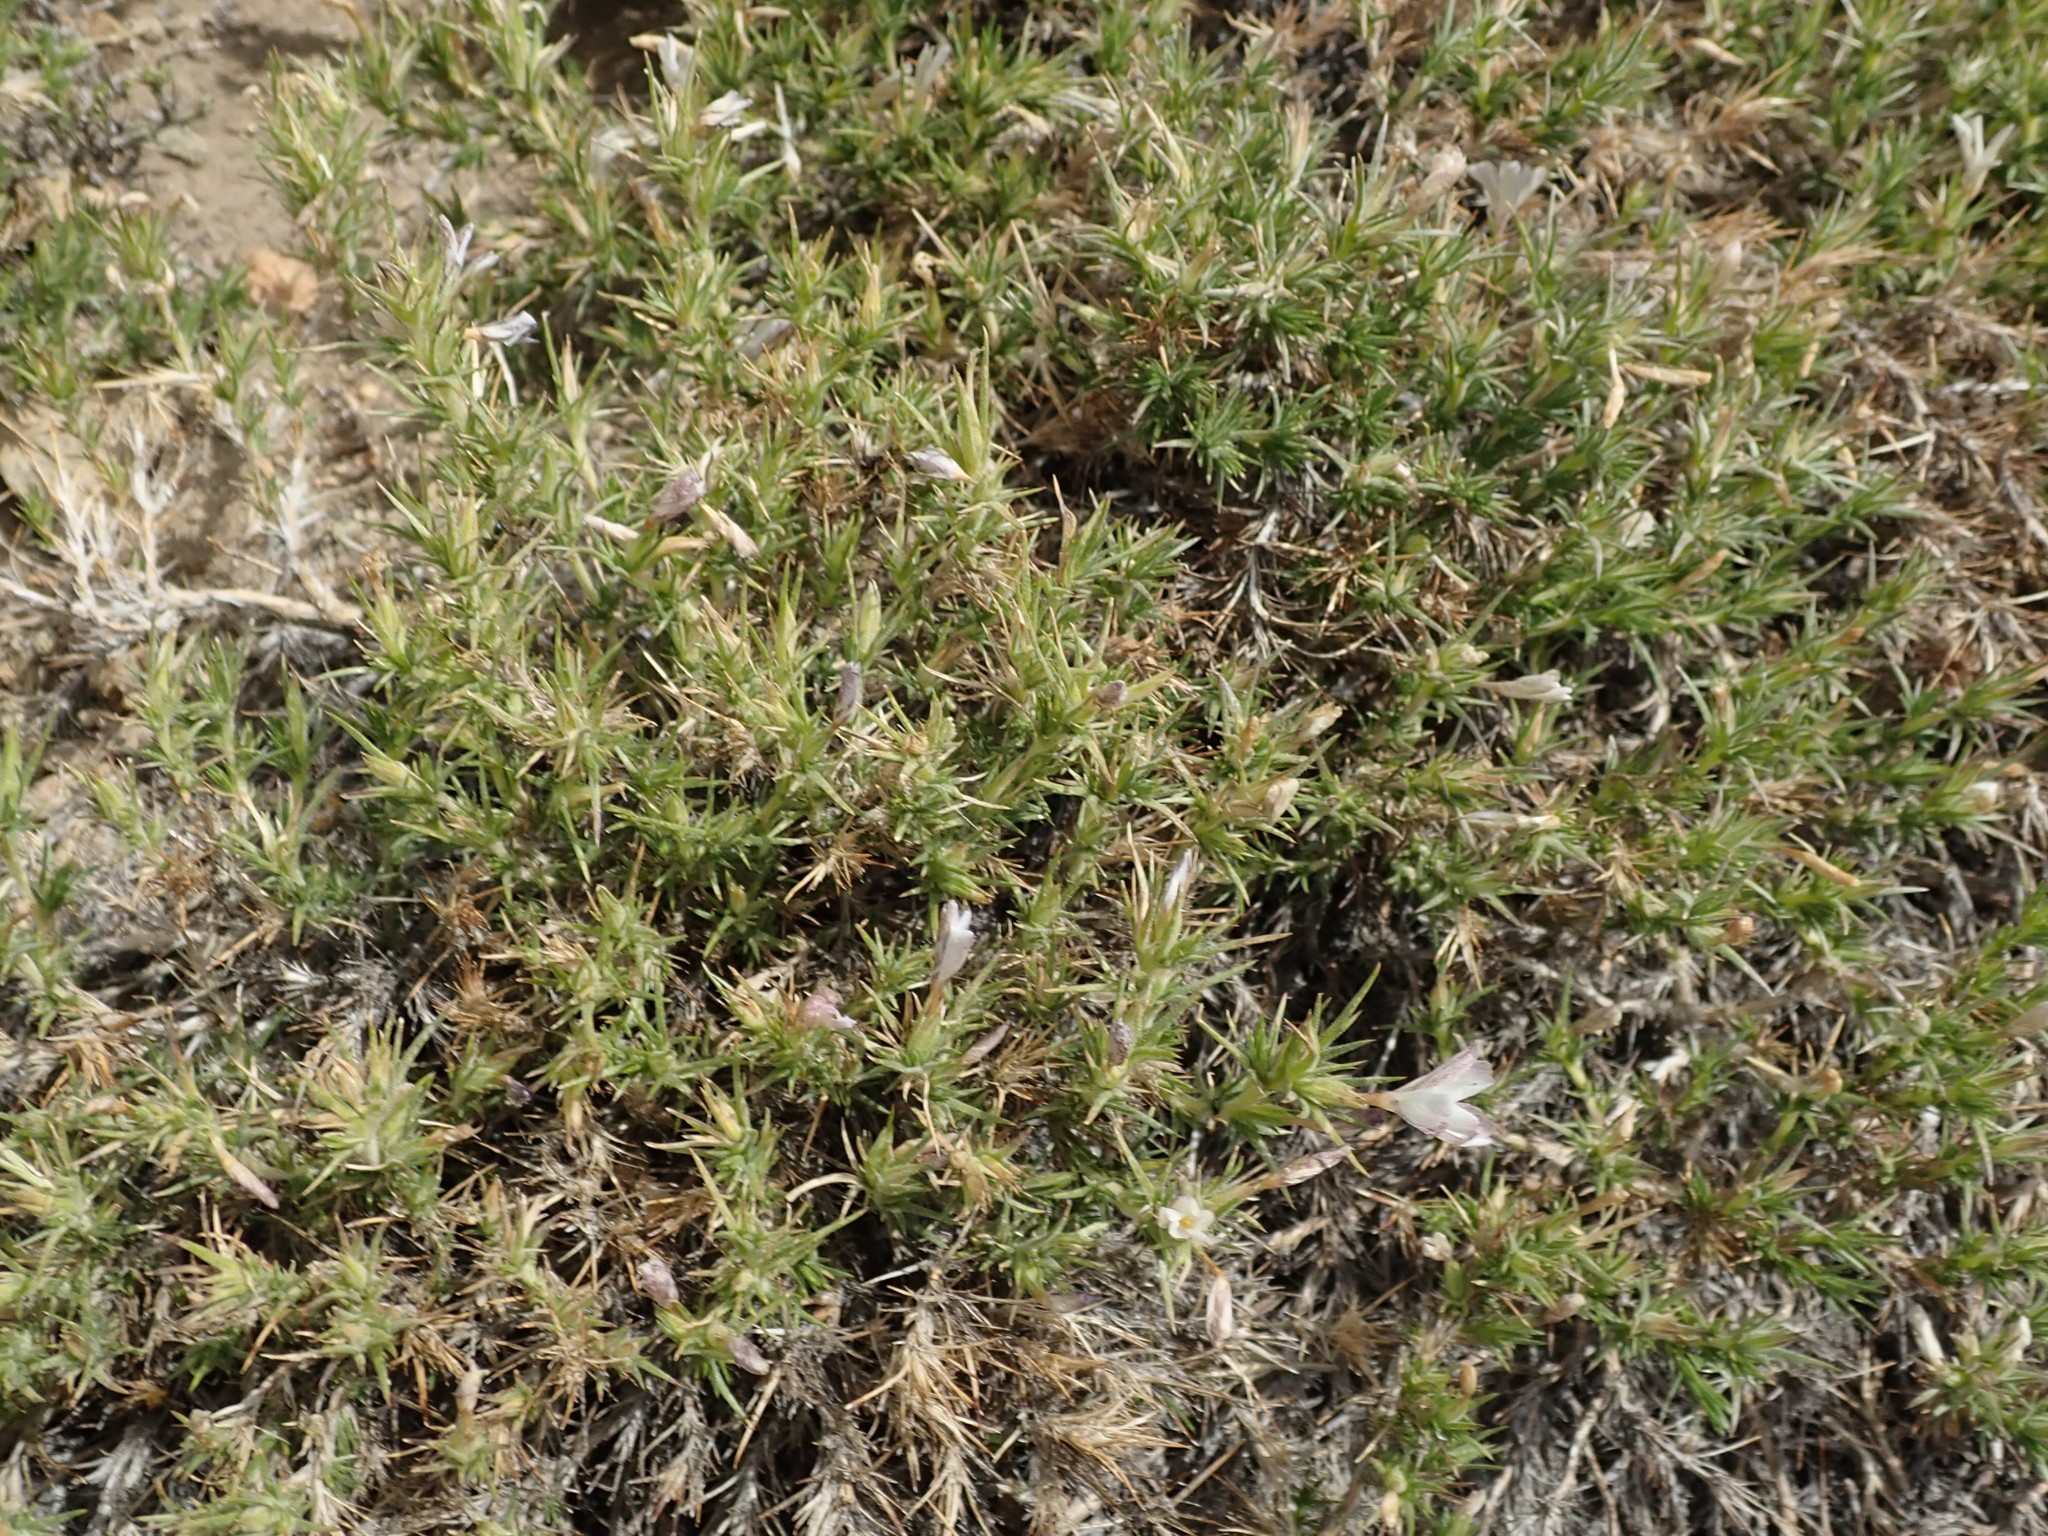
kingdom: Plantae
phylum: Tracheophyta
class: Magnoliopsida
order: Ericales
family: Polemoniaceae
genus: Linanthus
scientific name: Linanthus pungens
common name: Granite prickly phlox
